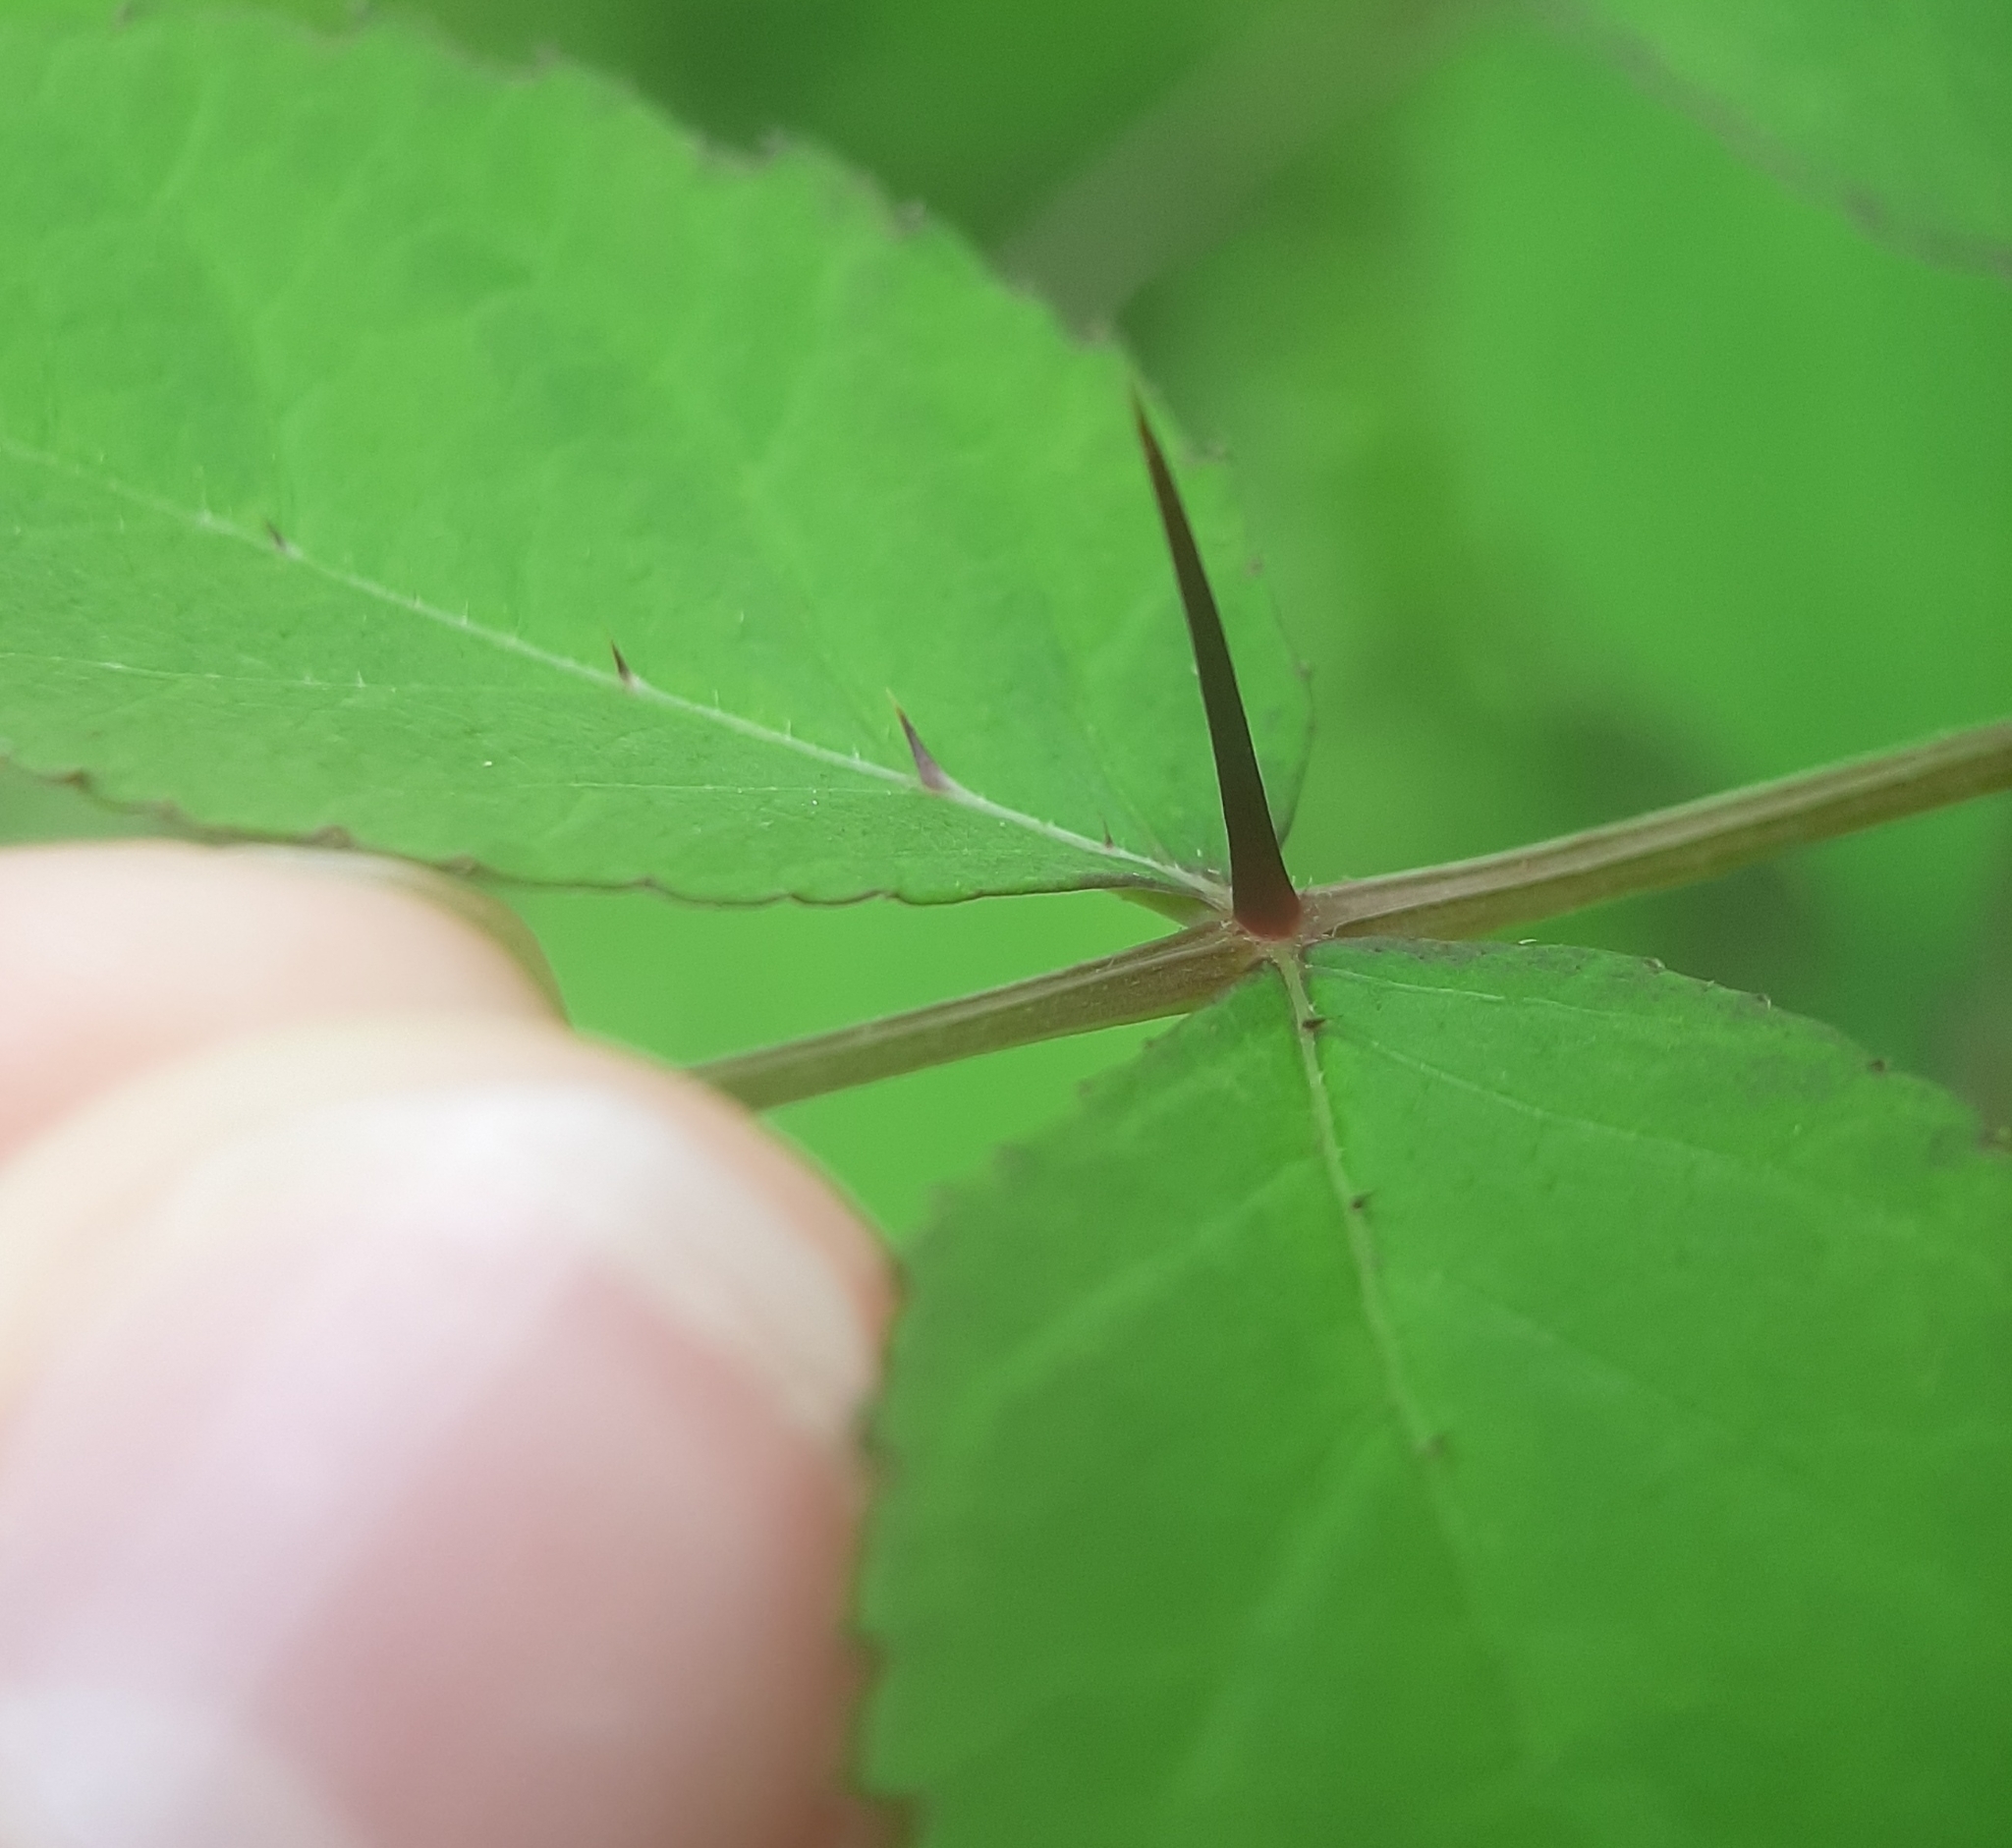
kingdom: Plantae
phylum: Tracheophyta
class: Magnoliopsida
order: Apiales
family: Araliaceae
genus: Aralia
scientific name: Aralia elata
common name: Japanese angelica-tree
